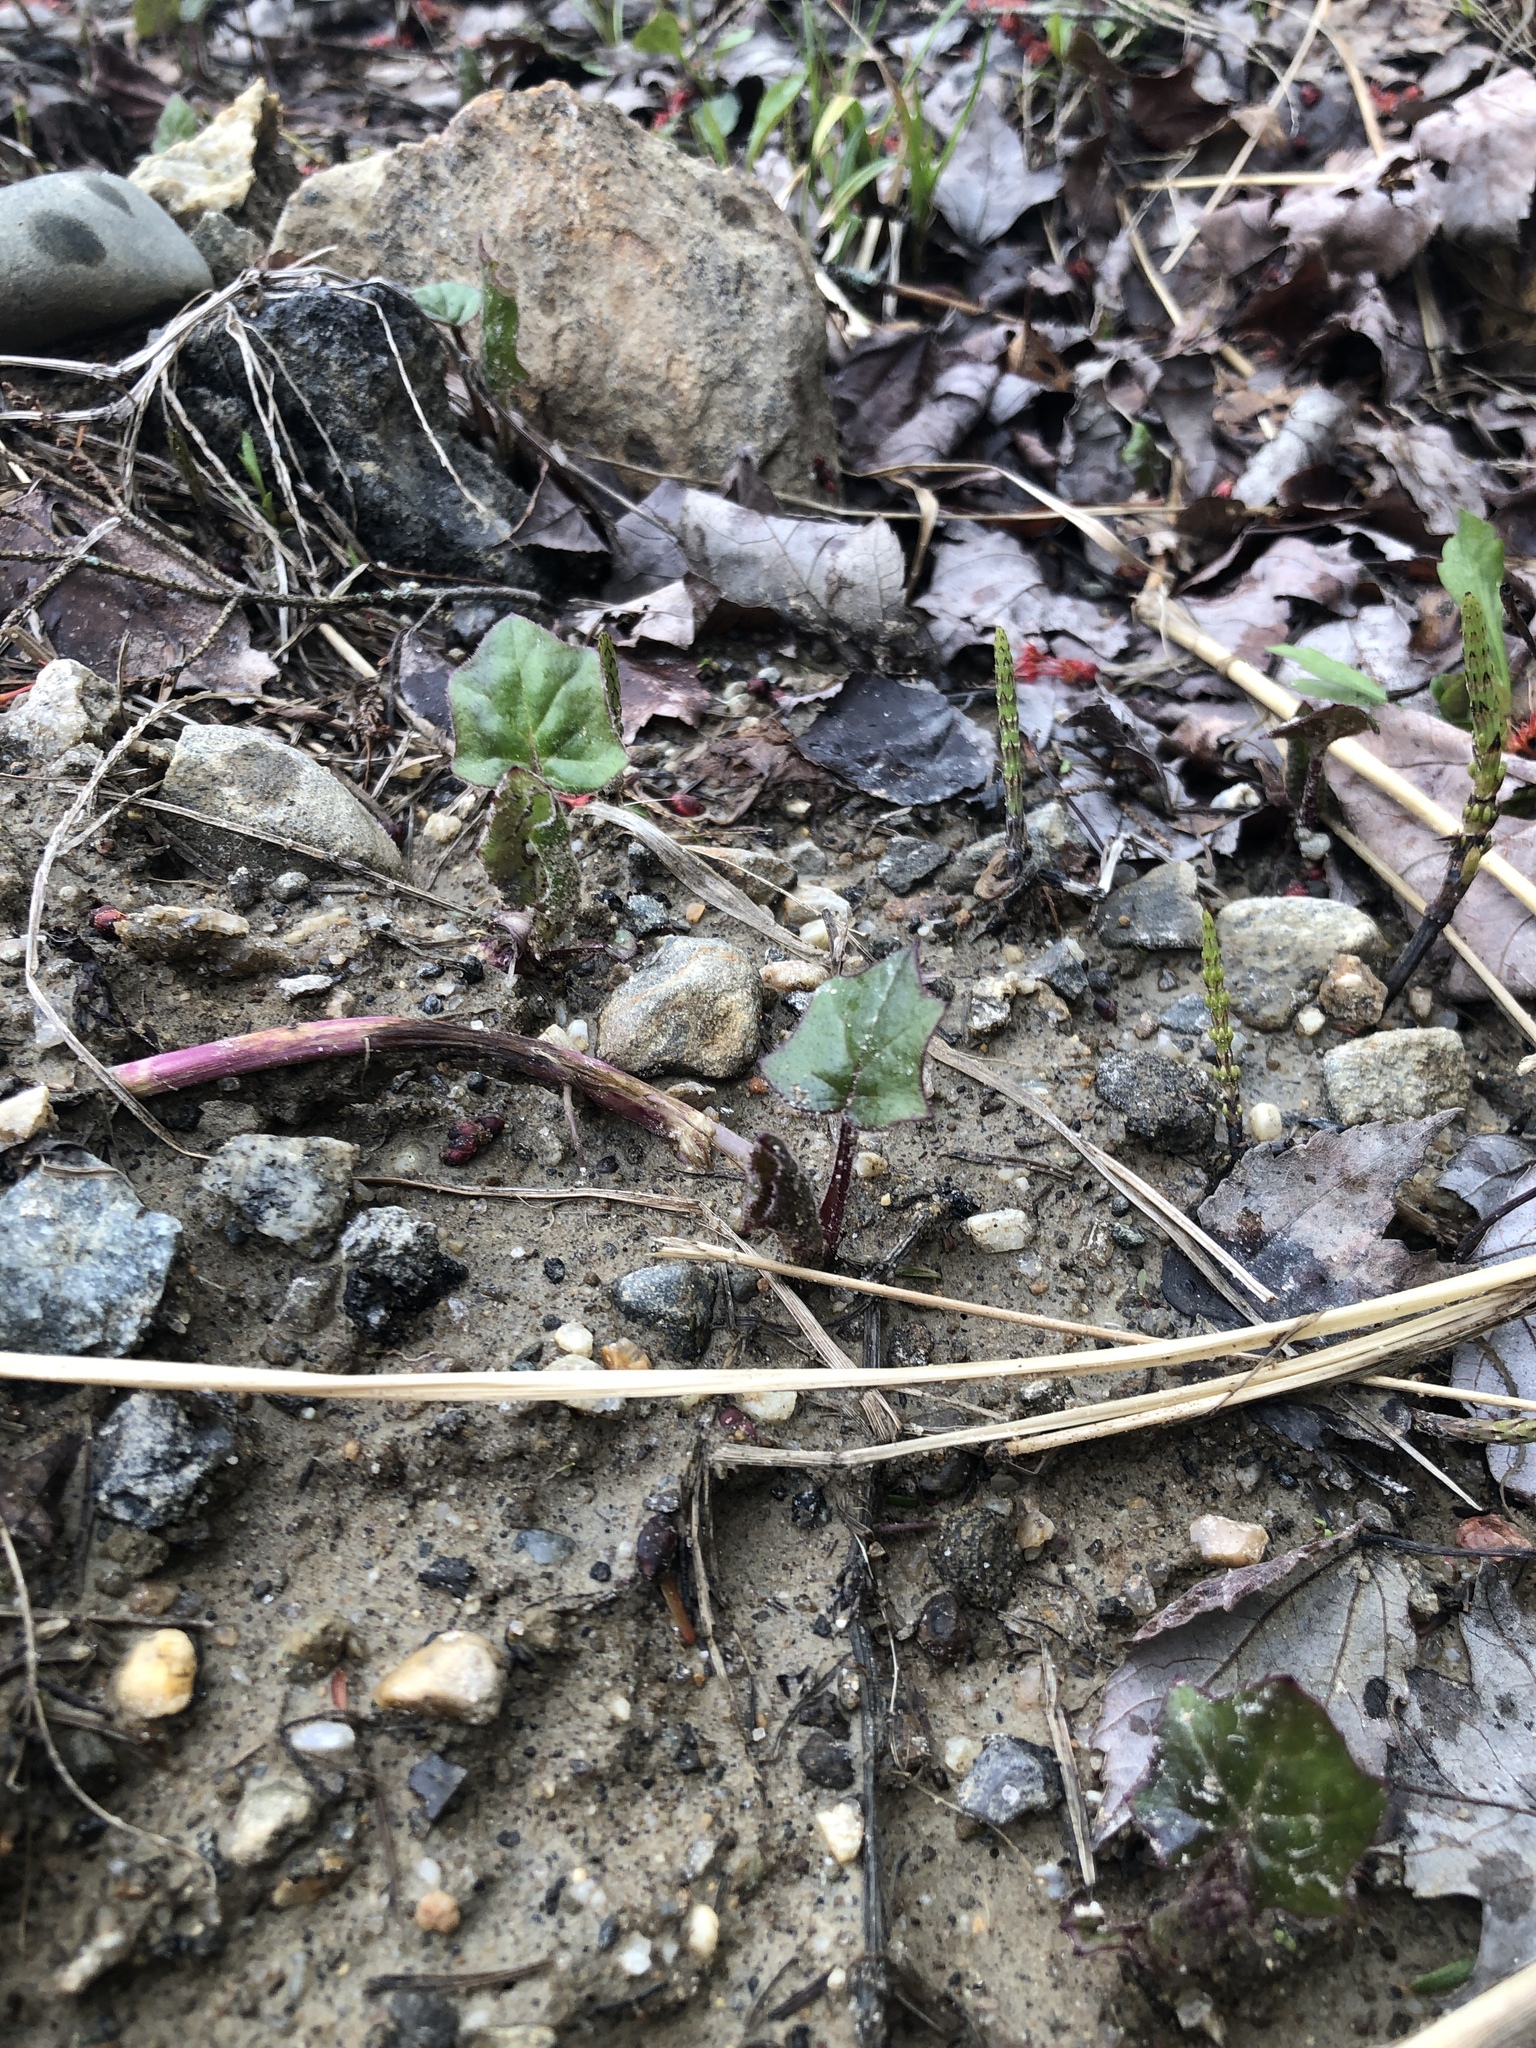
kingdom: Plantae
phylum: Tracheophyta
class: Magnoliopsida
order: Asterales
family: Asteraceae
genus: Tussilago
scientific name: Tussilago farfara
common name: Coltsfoot
